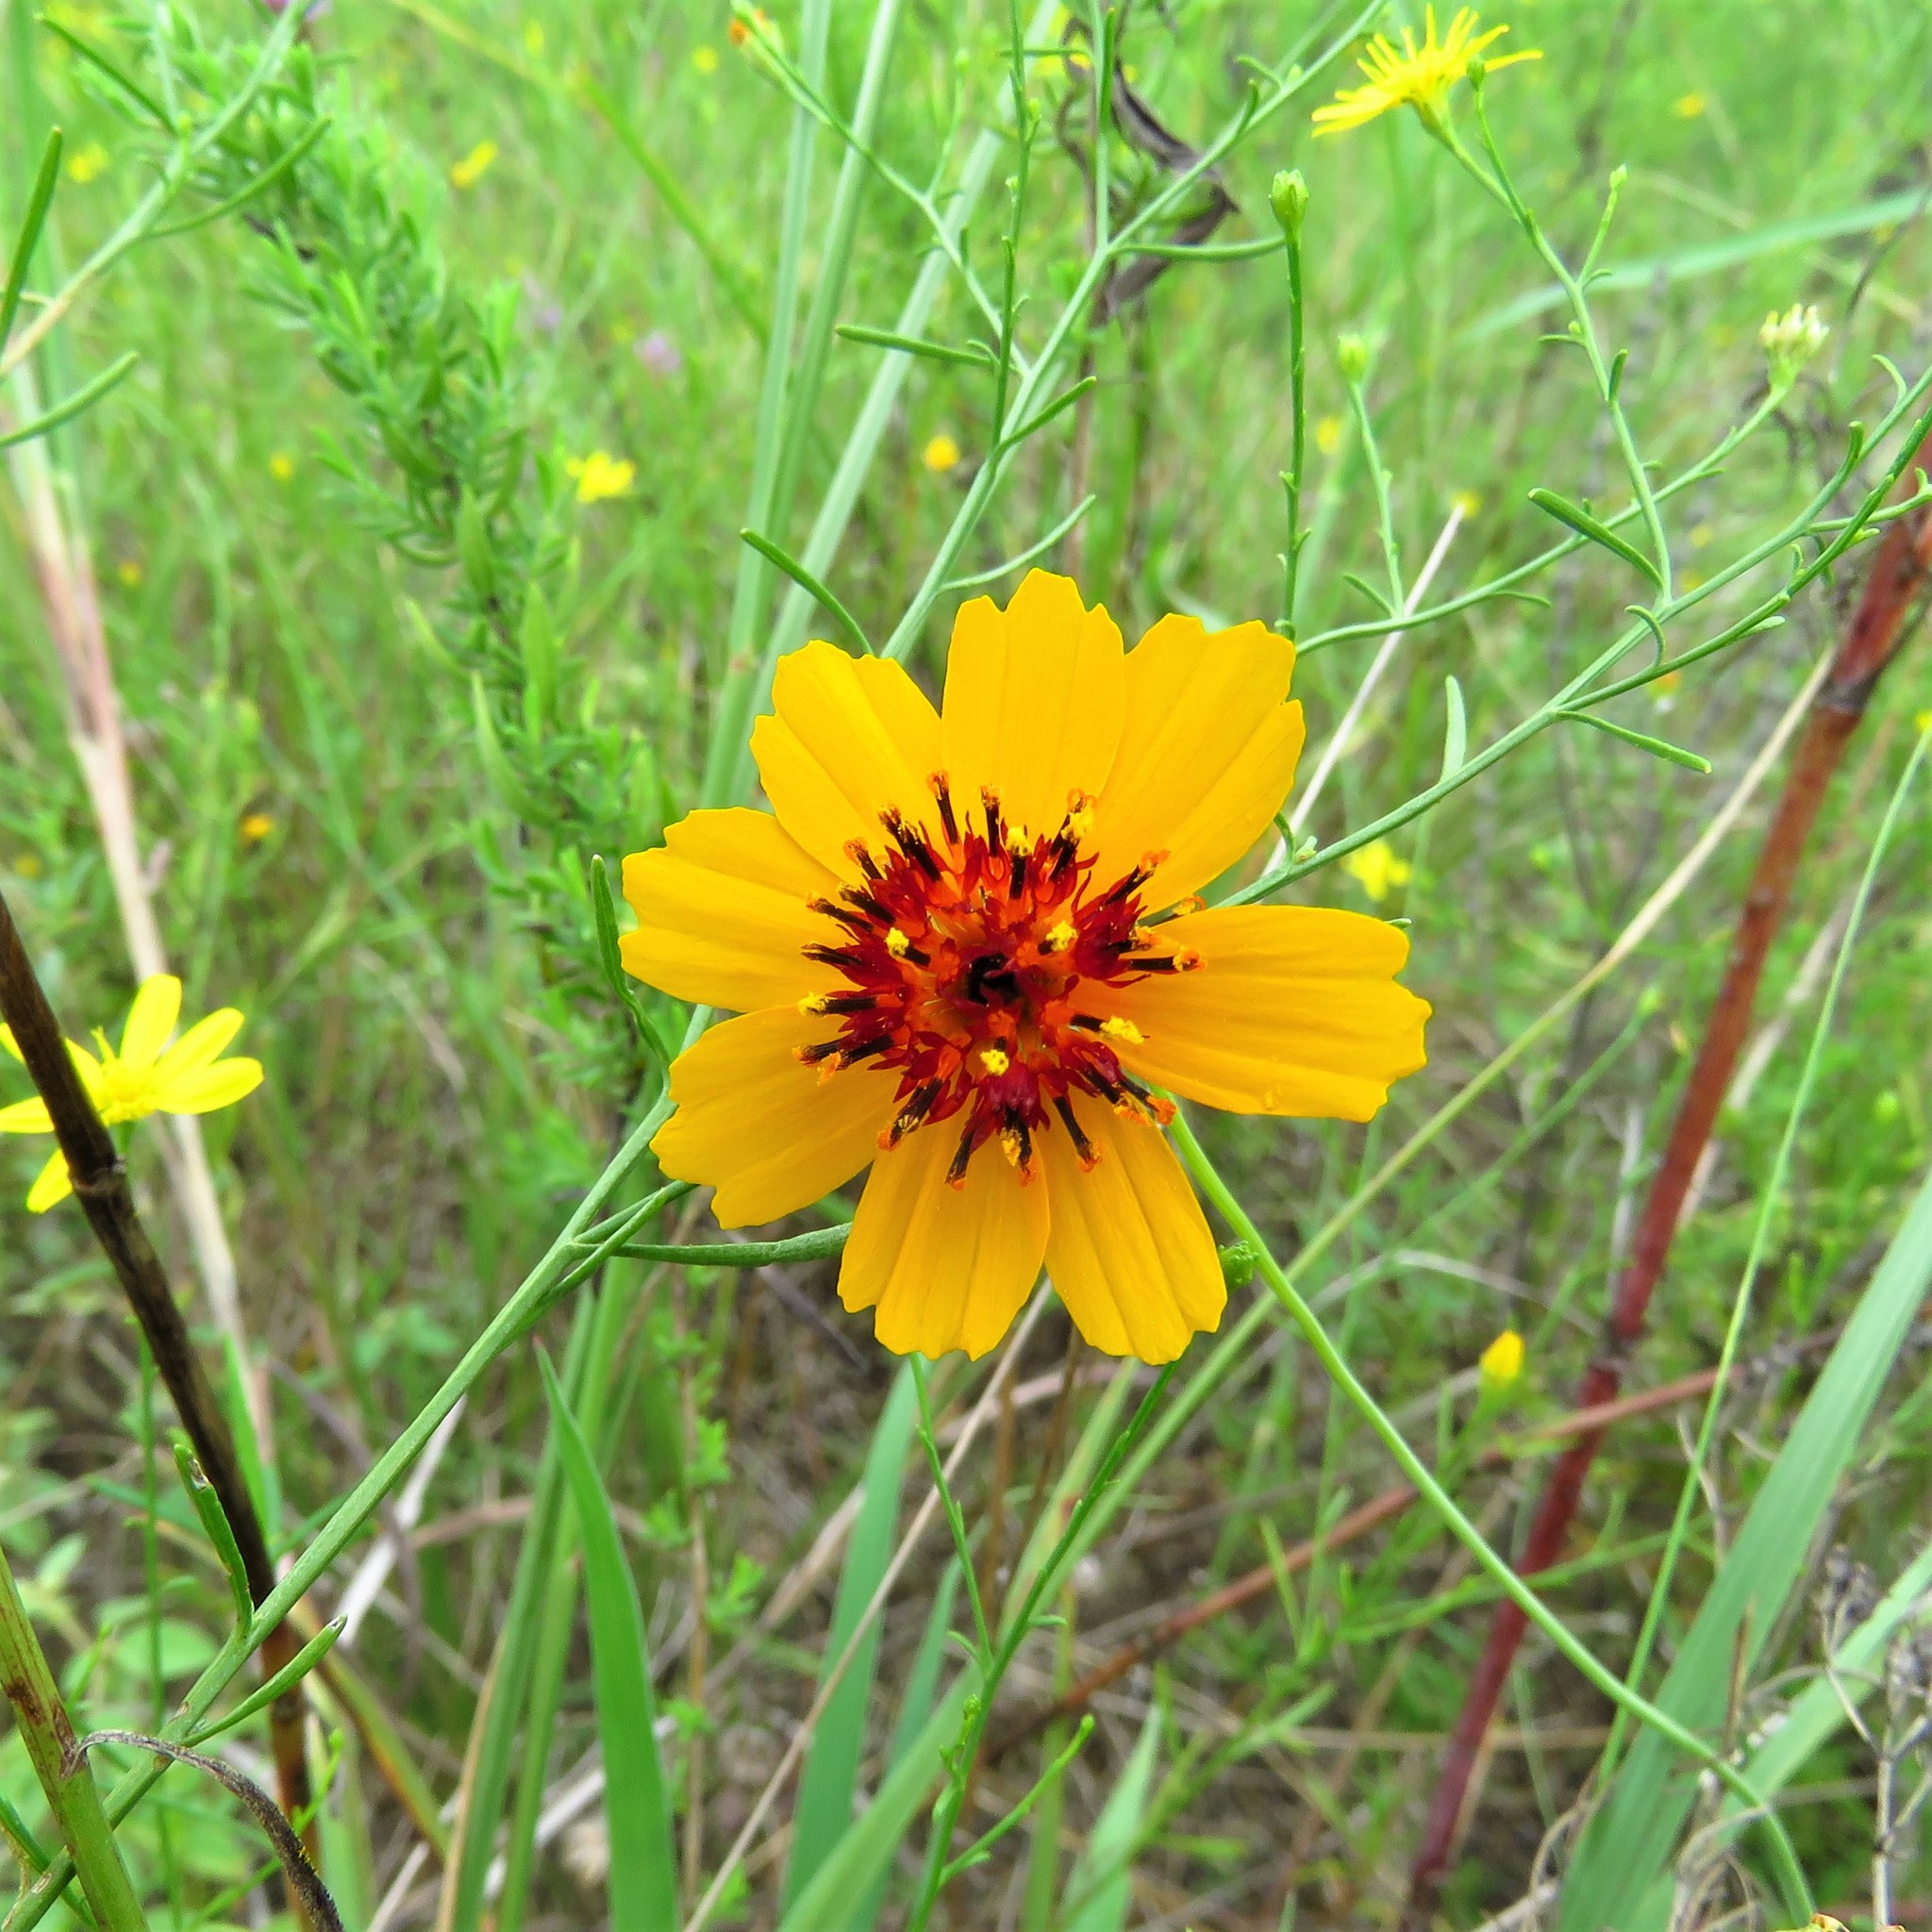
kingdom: Plantae
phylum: Tracheophyta
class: Magnoliopsida
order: Asterales
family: Asteraceae
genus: Thelesperma
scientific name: Thelesperma filifolium
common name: Stiff greenthread
